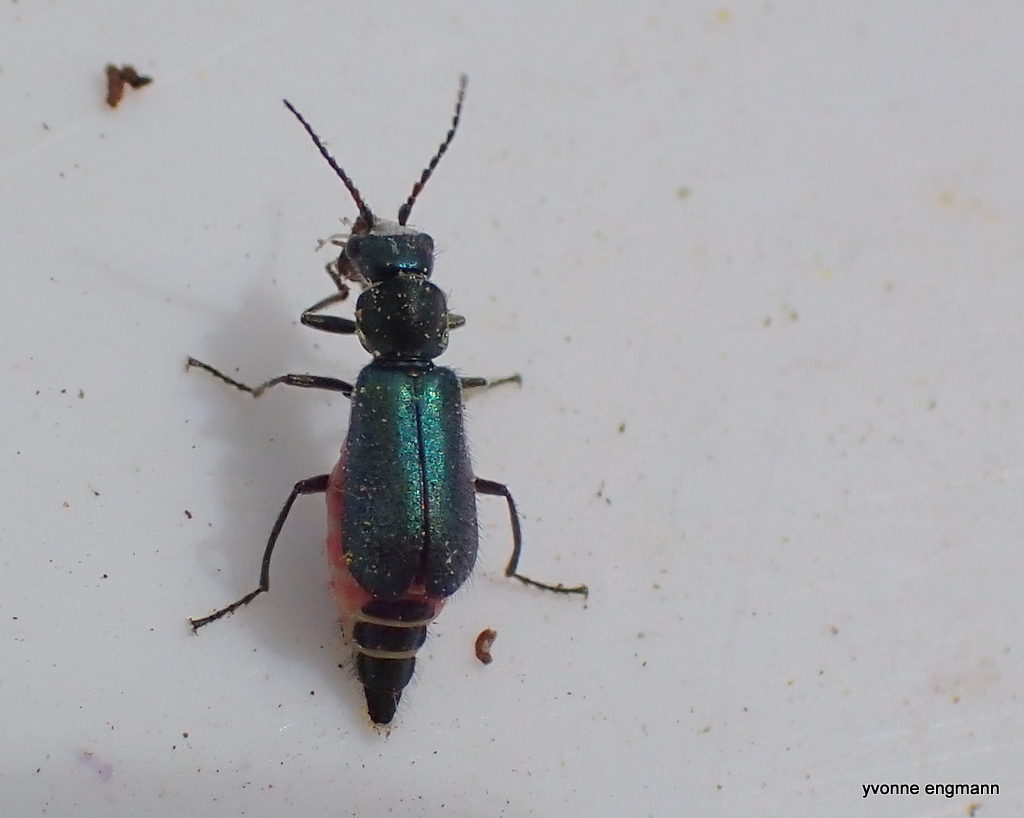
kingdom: Animalia
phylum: Arthropoda
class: Insecta
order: Coleoptera
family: Malachiidae
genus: Cordylepherus
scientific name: Cordylepherus viridis
